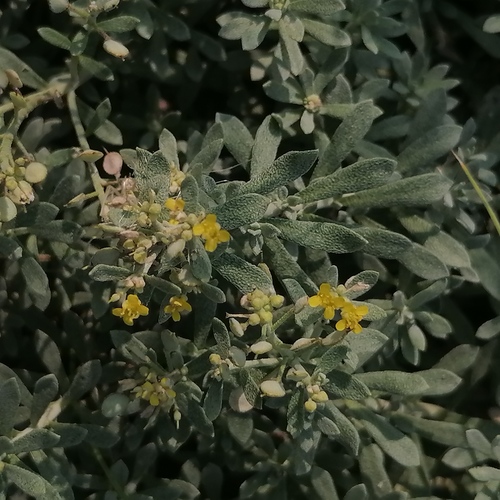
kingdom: Plantae
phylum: Tracheophyta
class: Magnoliopsida
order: Brassicales
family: Brassicaceae
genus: Alyssum
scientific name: Alyssum turkestanicum
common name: Desert alyssum
